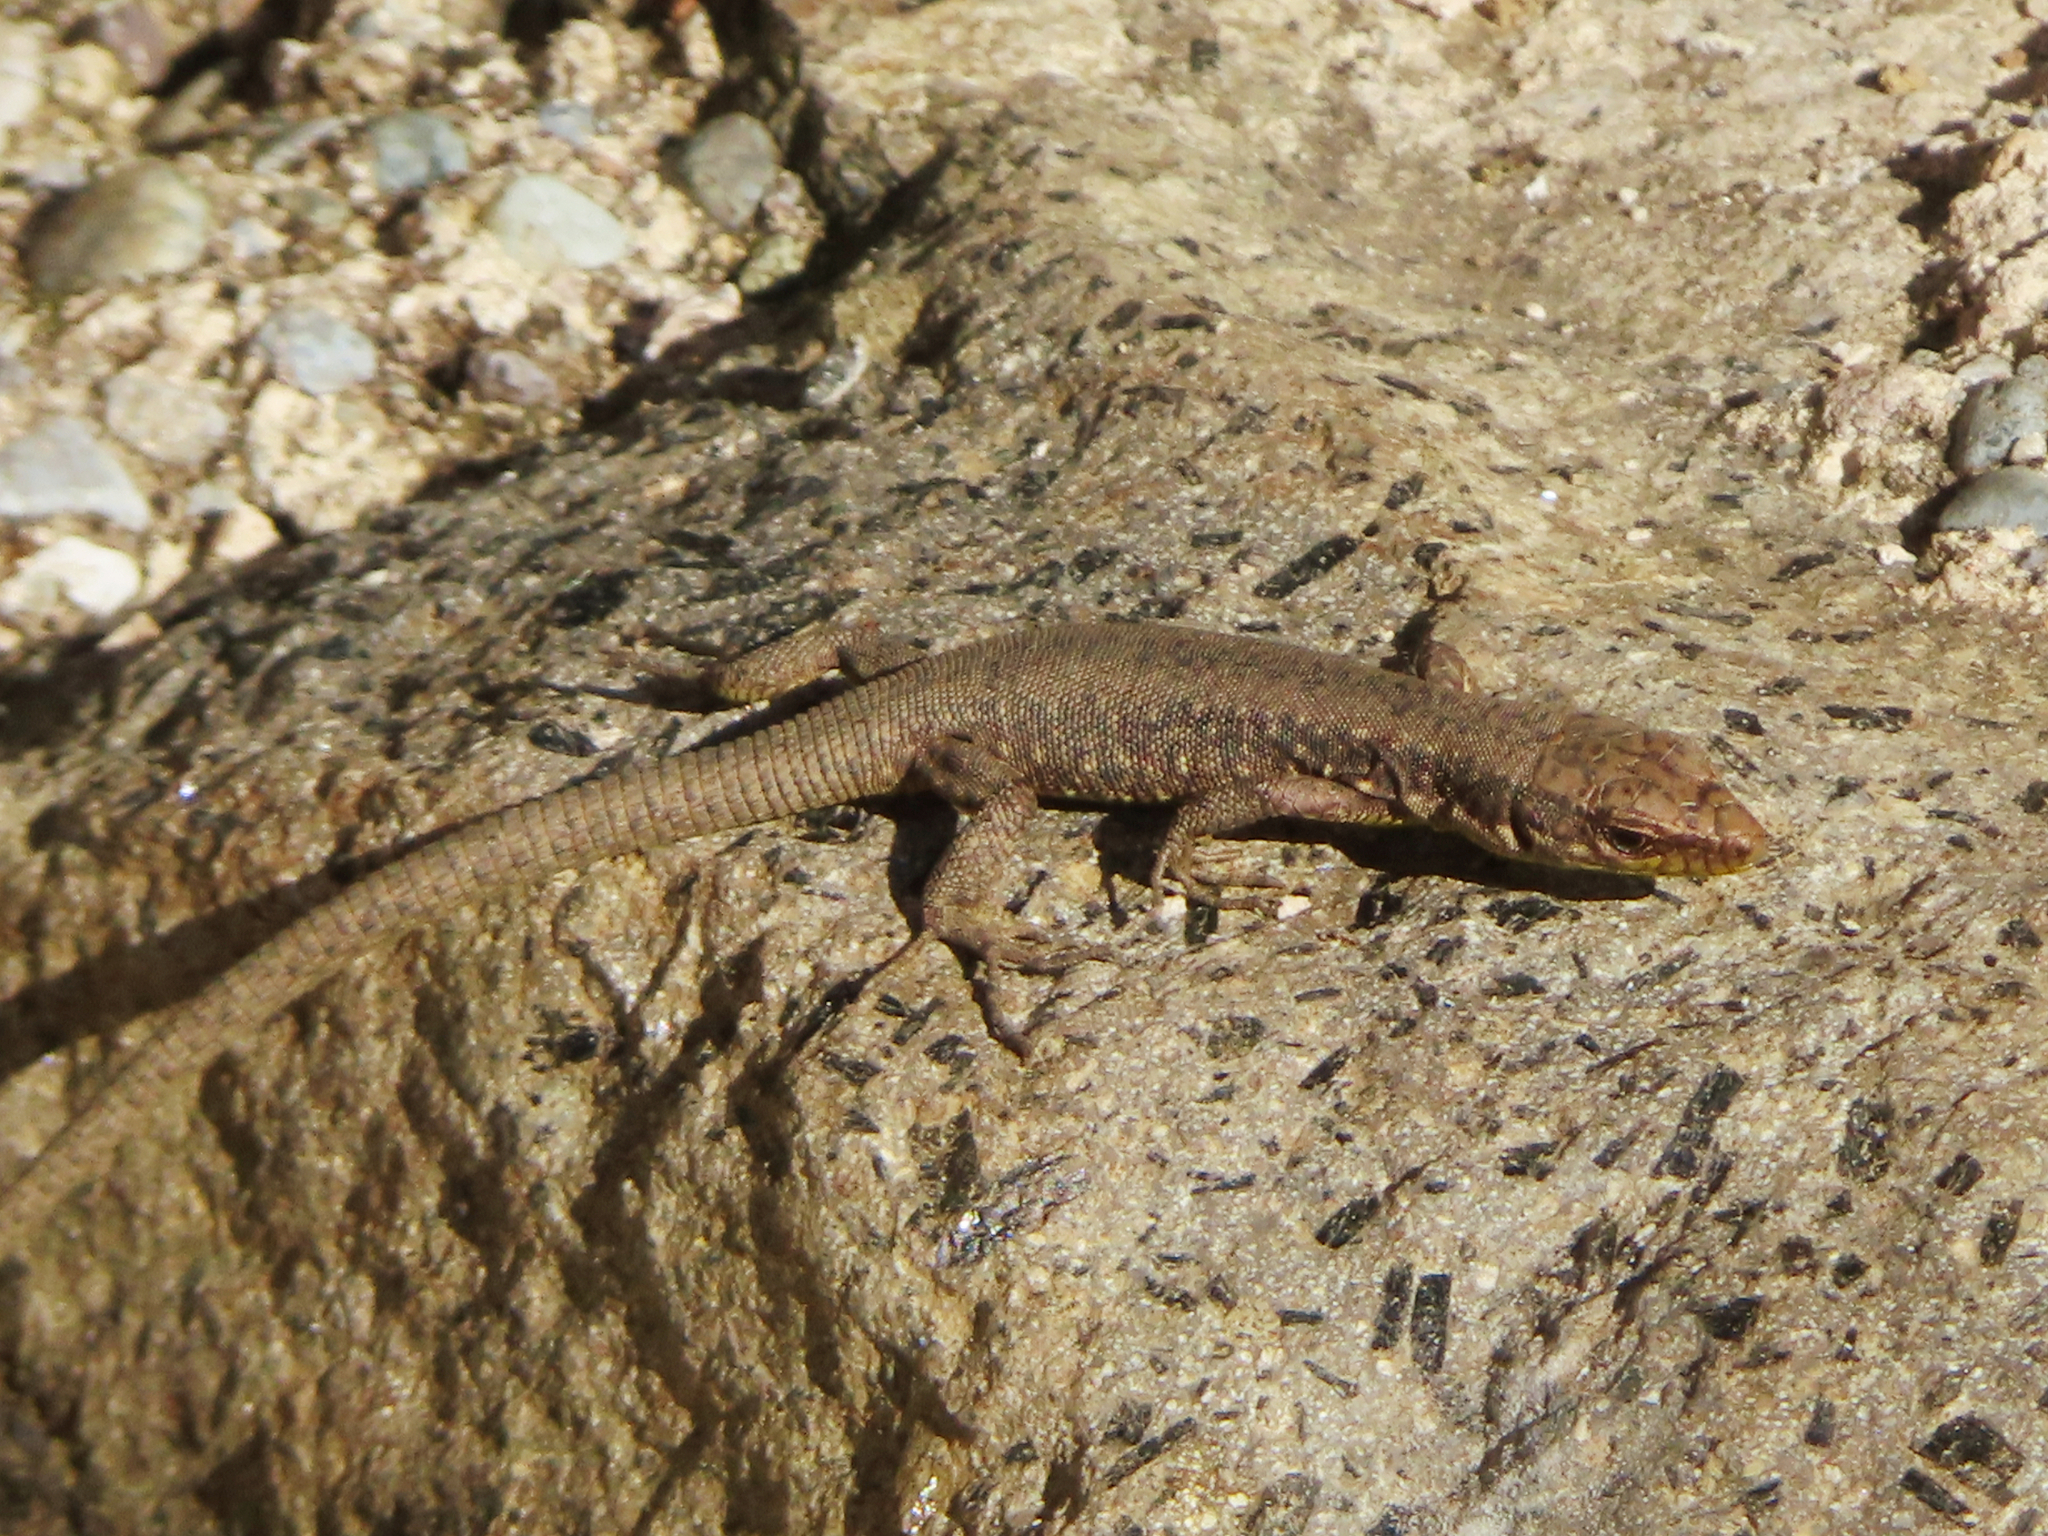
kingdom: Animalia
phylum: Chordata
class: Squamata
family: Lacertidae
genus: Darevskia
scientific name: Darevskia rudis
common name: Spiny-tailed lizard
